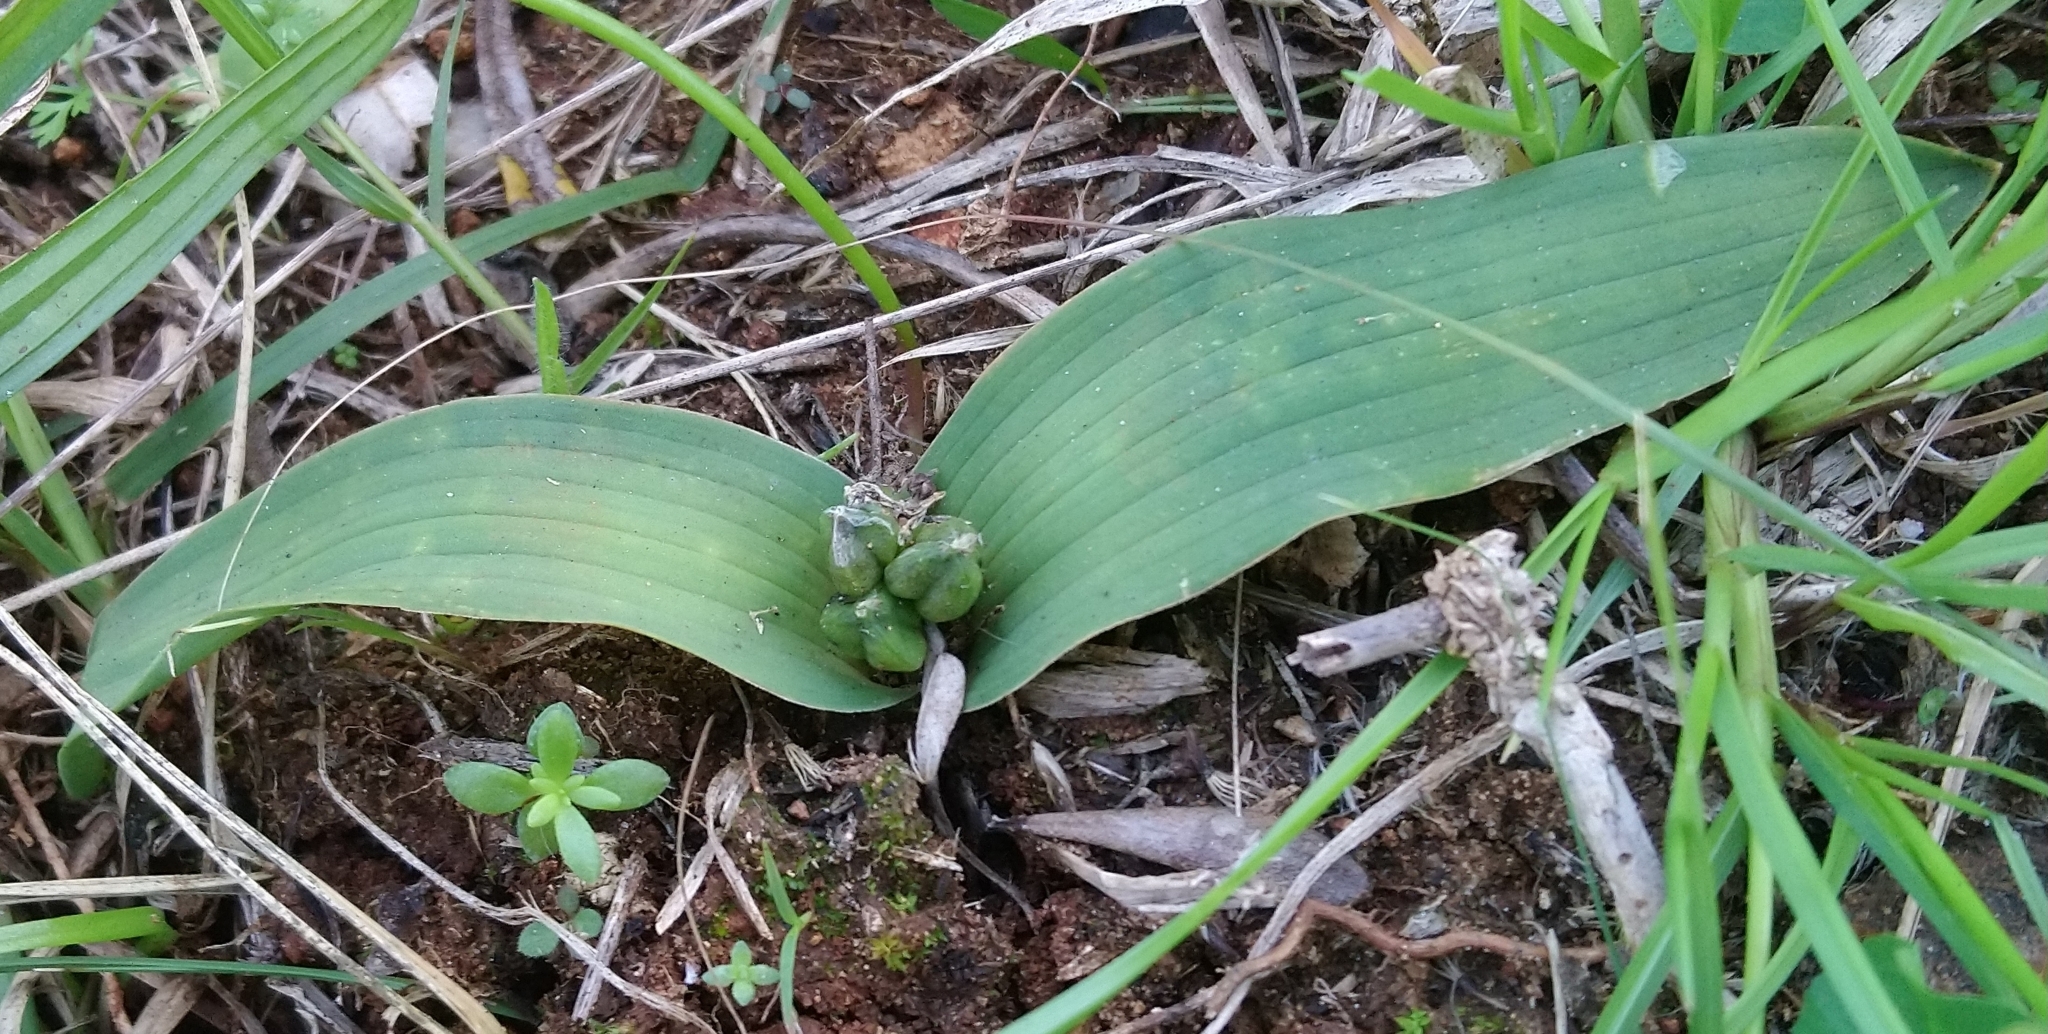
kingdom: Plantae
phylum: Tracheophyta
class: Liliopsida
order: Asparagales
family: Asparagaceae
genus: Lachenalia
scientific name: Lachenalia ensifolia
